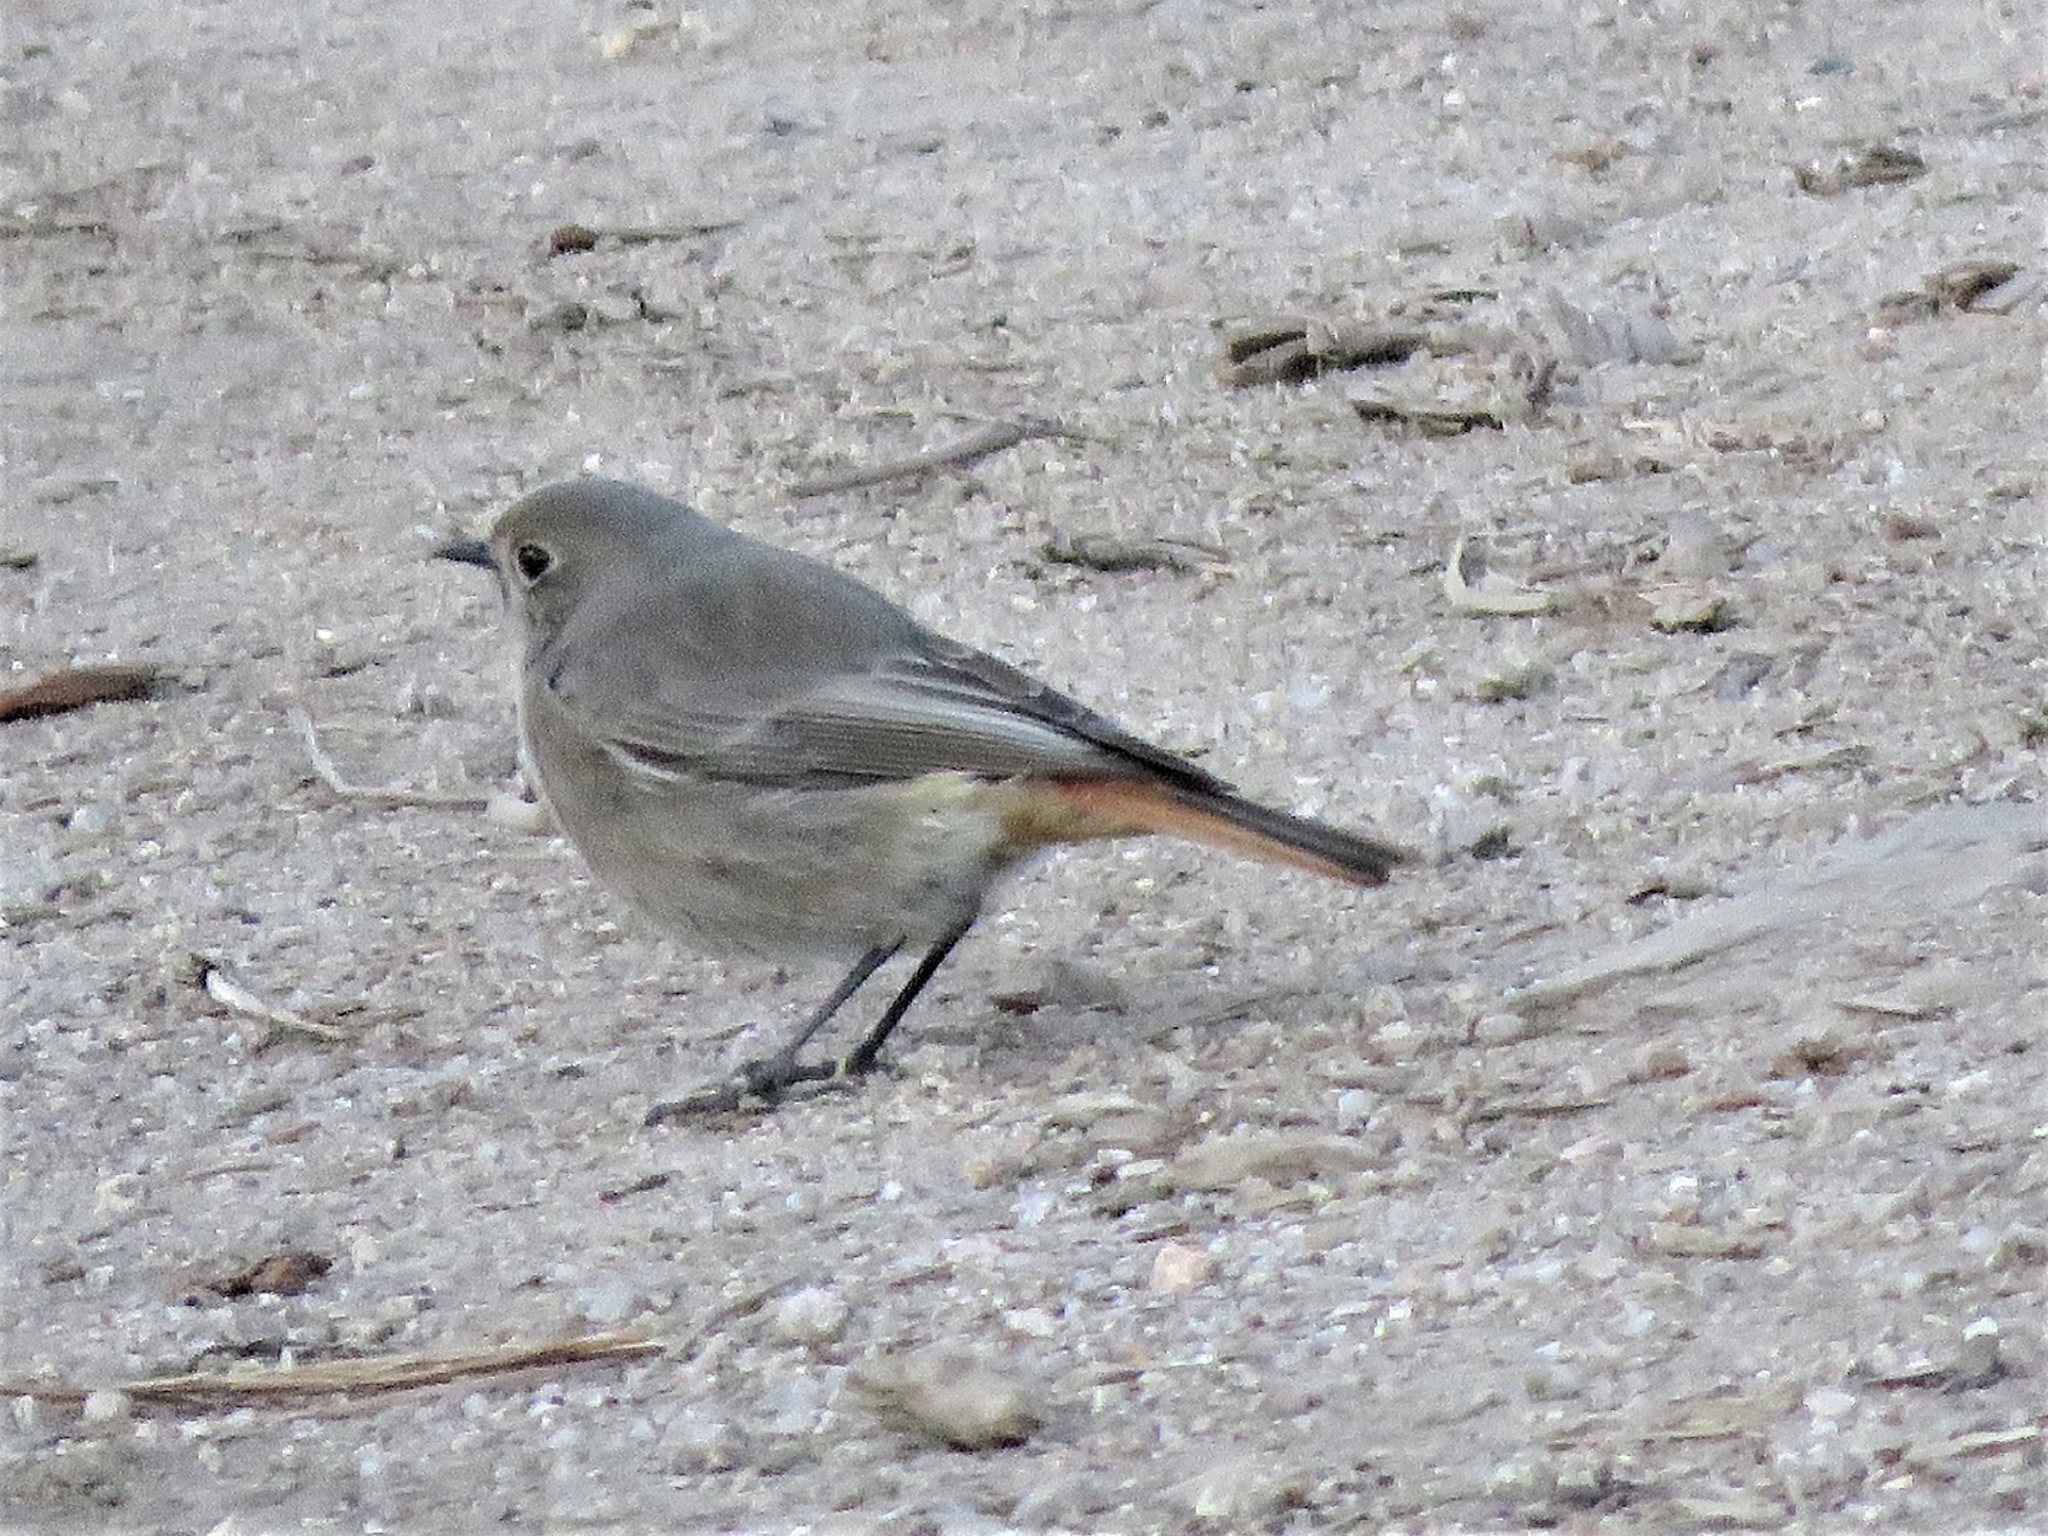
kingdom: Animalia
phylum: Chordata
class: Aves
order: Passeriformes
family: Muscicapidae
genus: Phoenicurus
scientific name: Phoenicurus ochruros
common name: Black redstart
